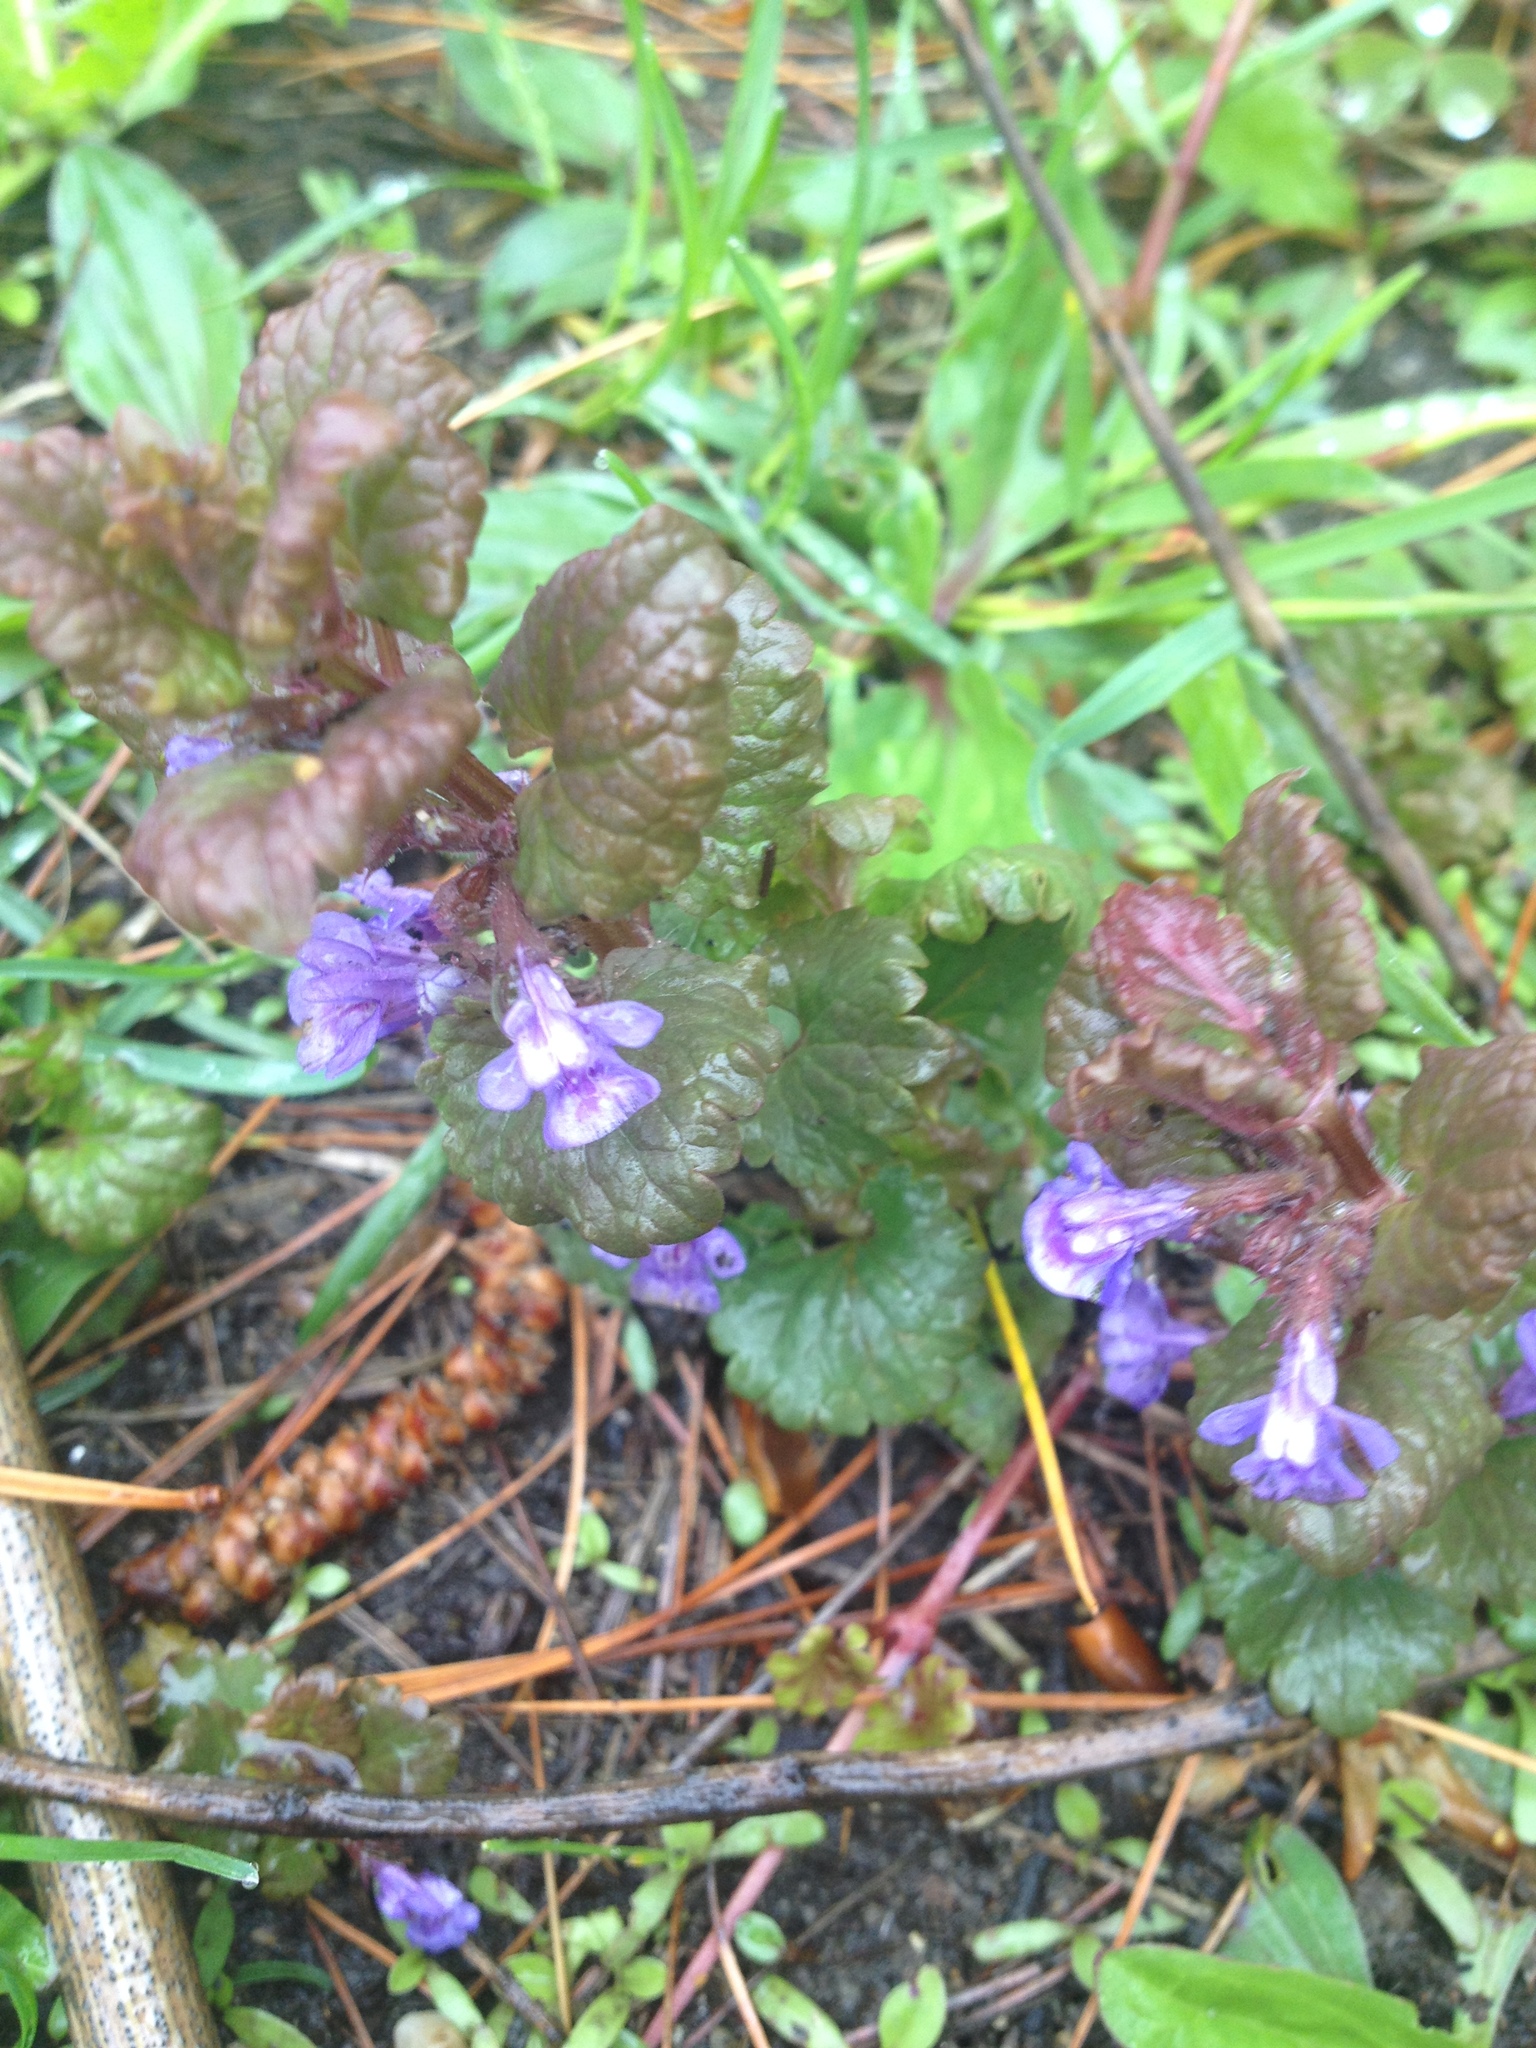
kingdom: Plantae
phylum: Tracheophyta
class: Magnoliopsida
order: Lamiales
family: Lamiaceae
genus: Glechoma
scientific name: Glechoma hederacea
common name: Ground ivy
